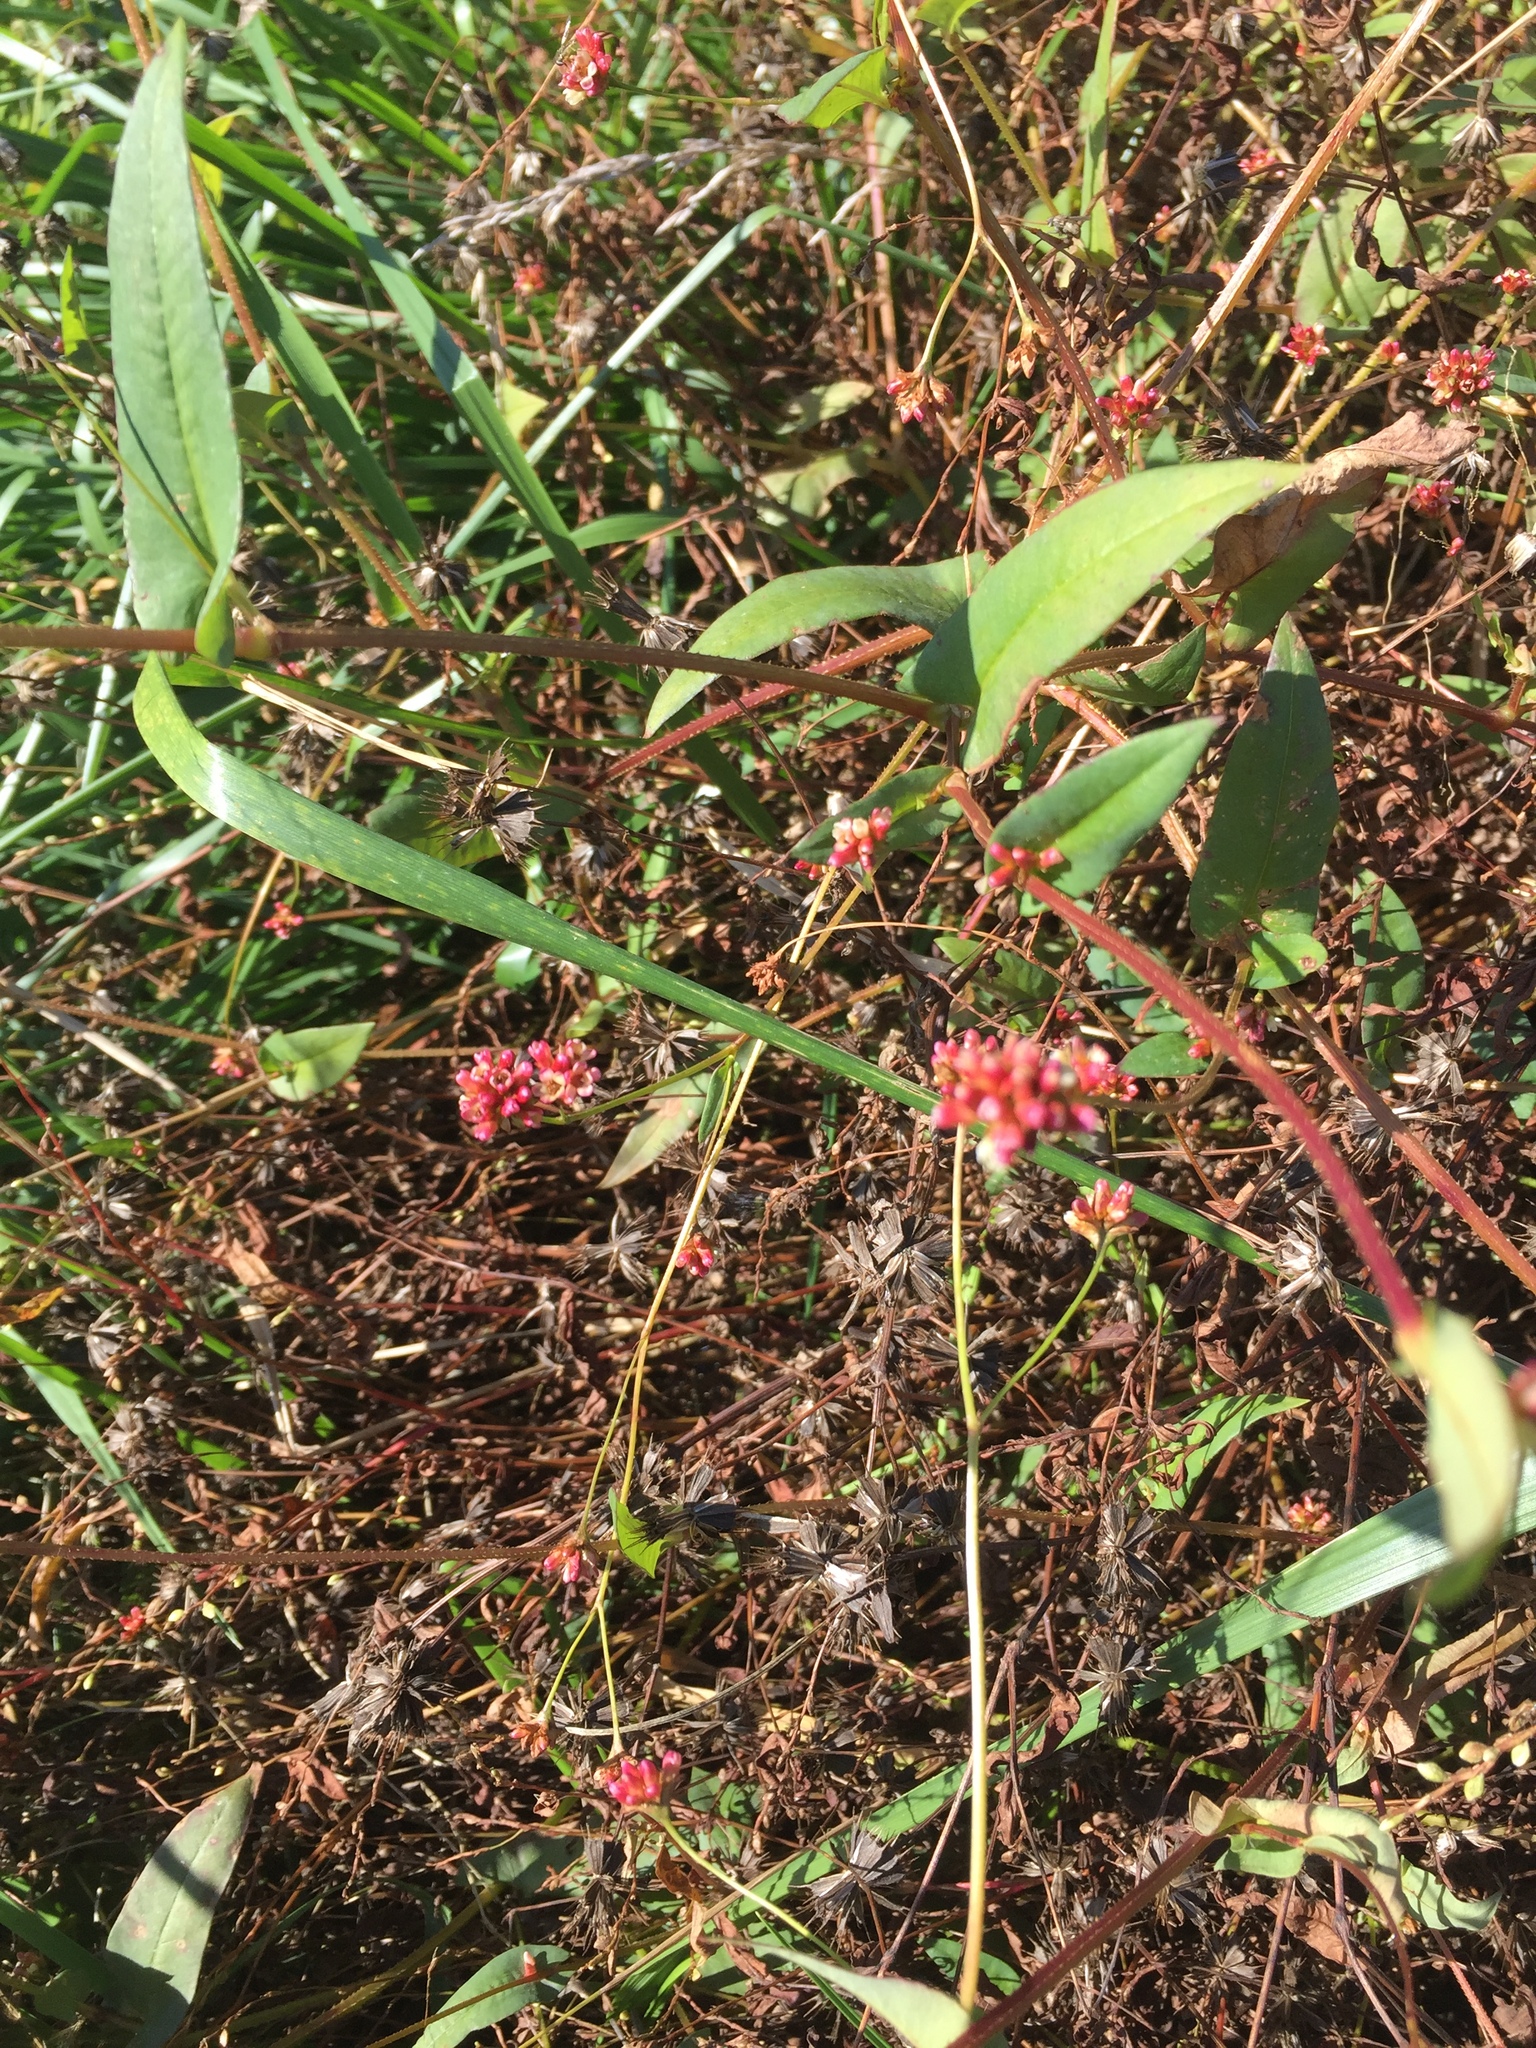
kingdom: Plantae
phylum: Tracheophyta
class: Magnoliopsida
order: Caryophyllales
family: Polygonaceae
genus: Persicaria
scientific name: Persicaria sagittata
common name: American tearthumb
